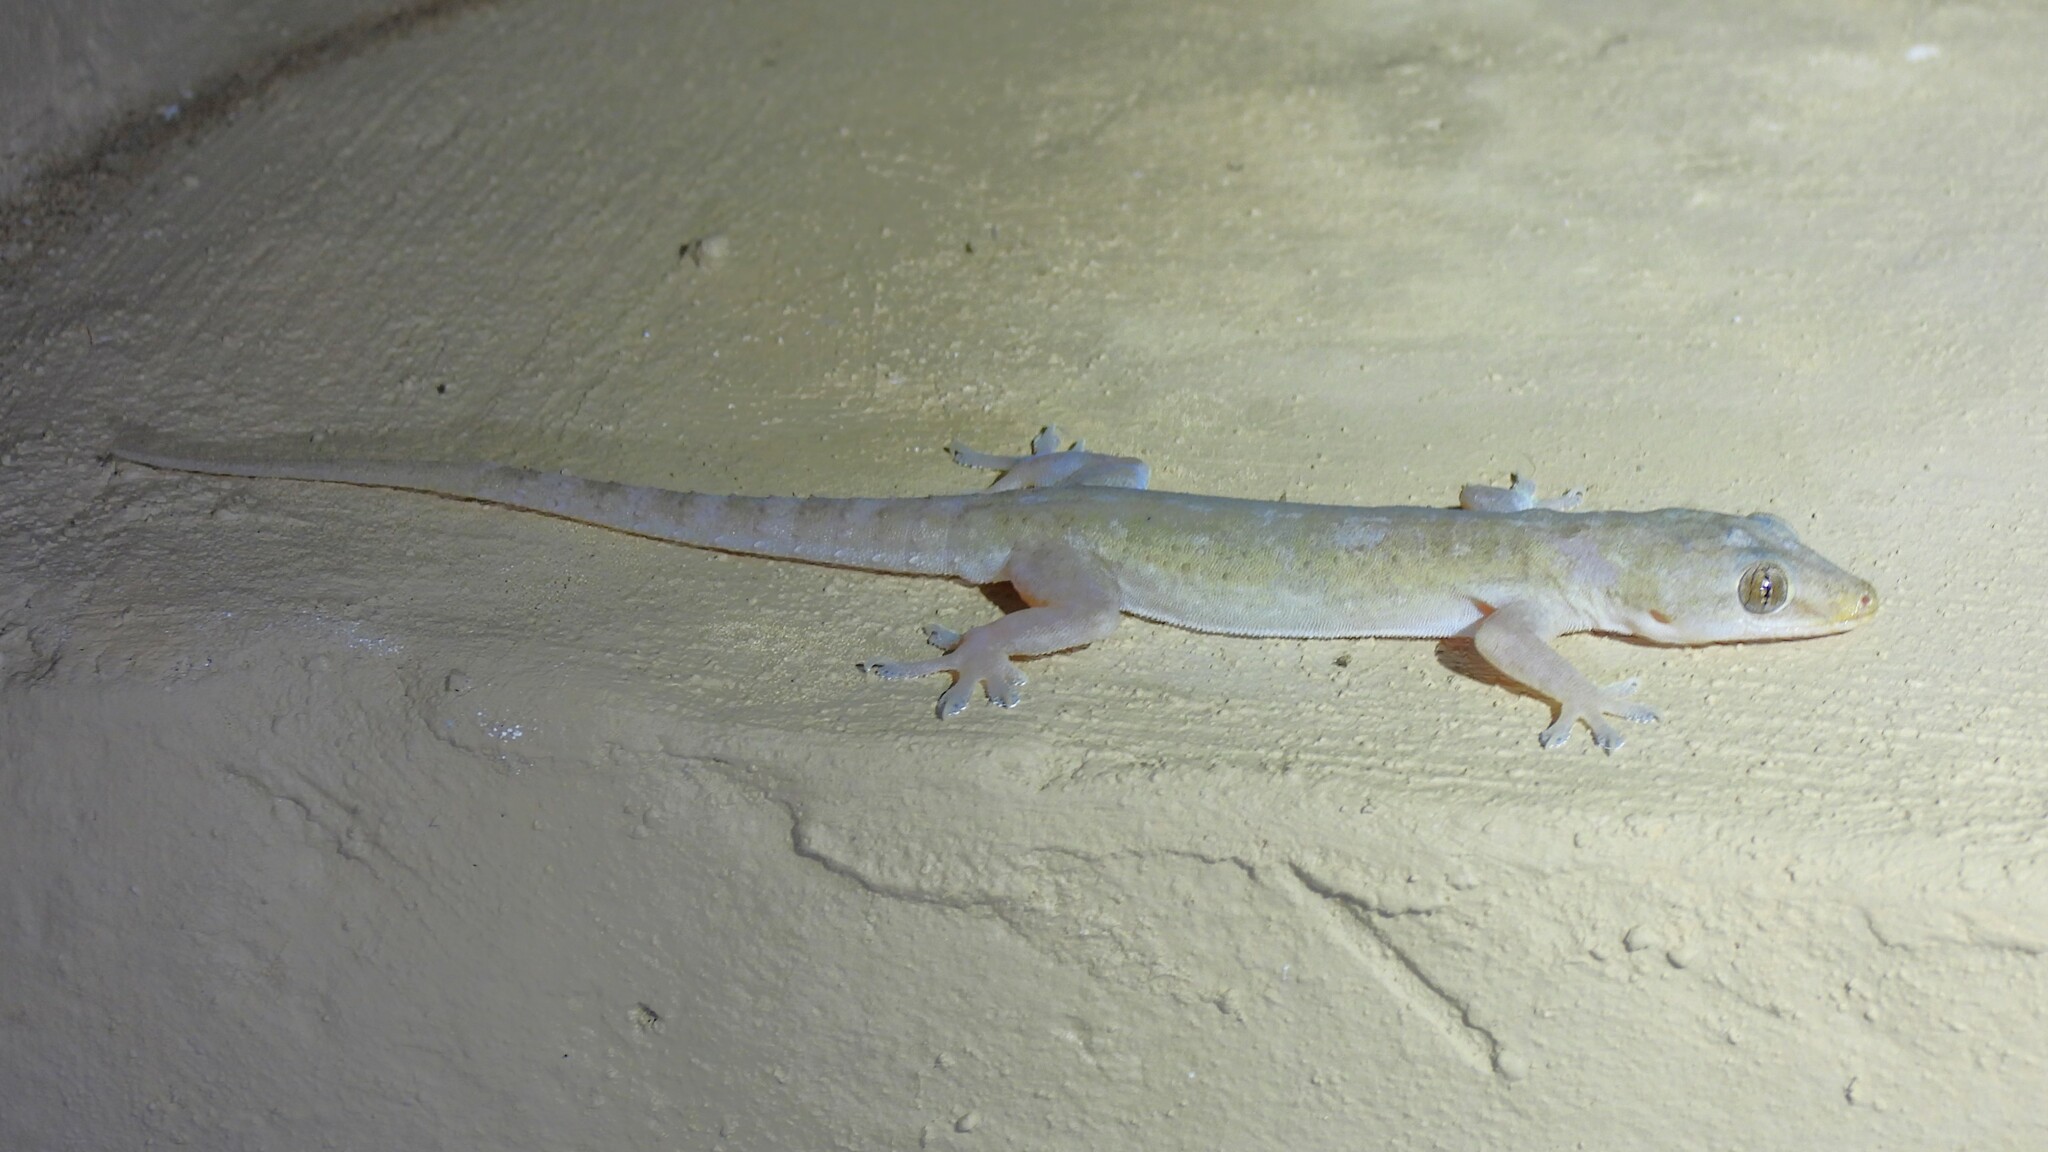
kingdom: Animalia
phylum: Chordata
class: Squamata
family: Gekkonidae
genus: Hemidactylus
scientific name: Hemidactylus frenatus
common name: Common house gecko
